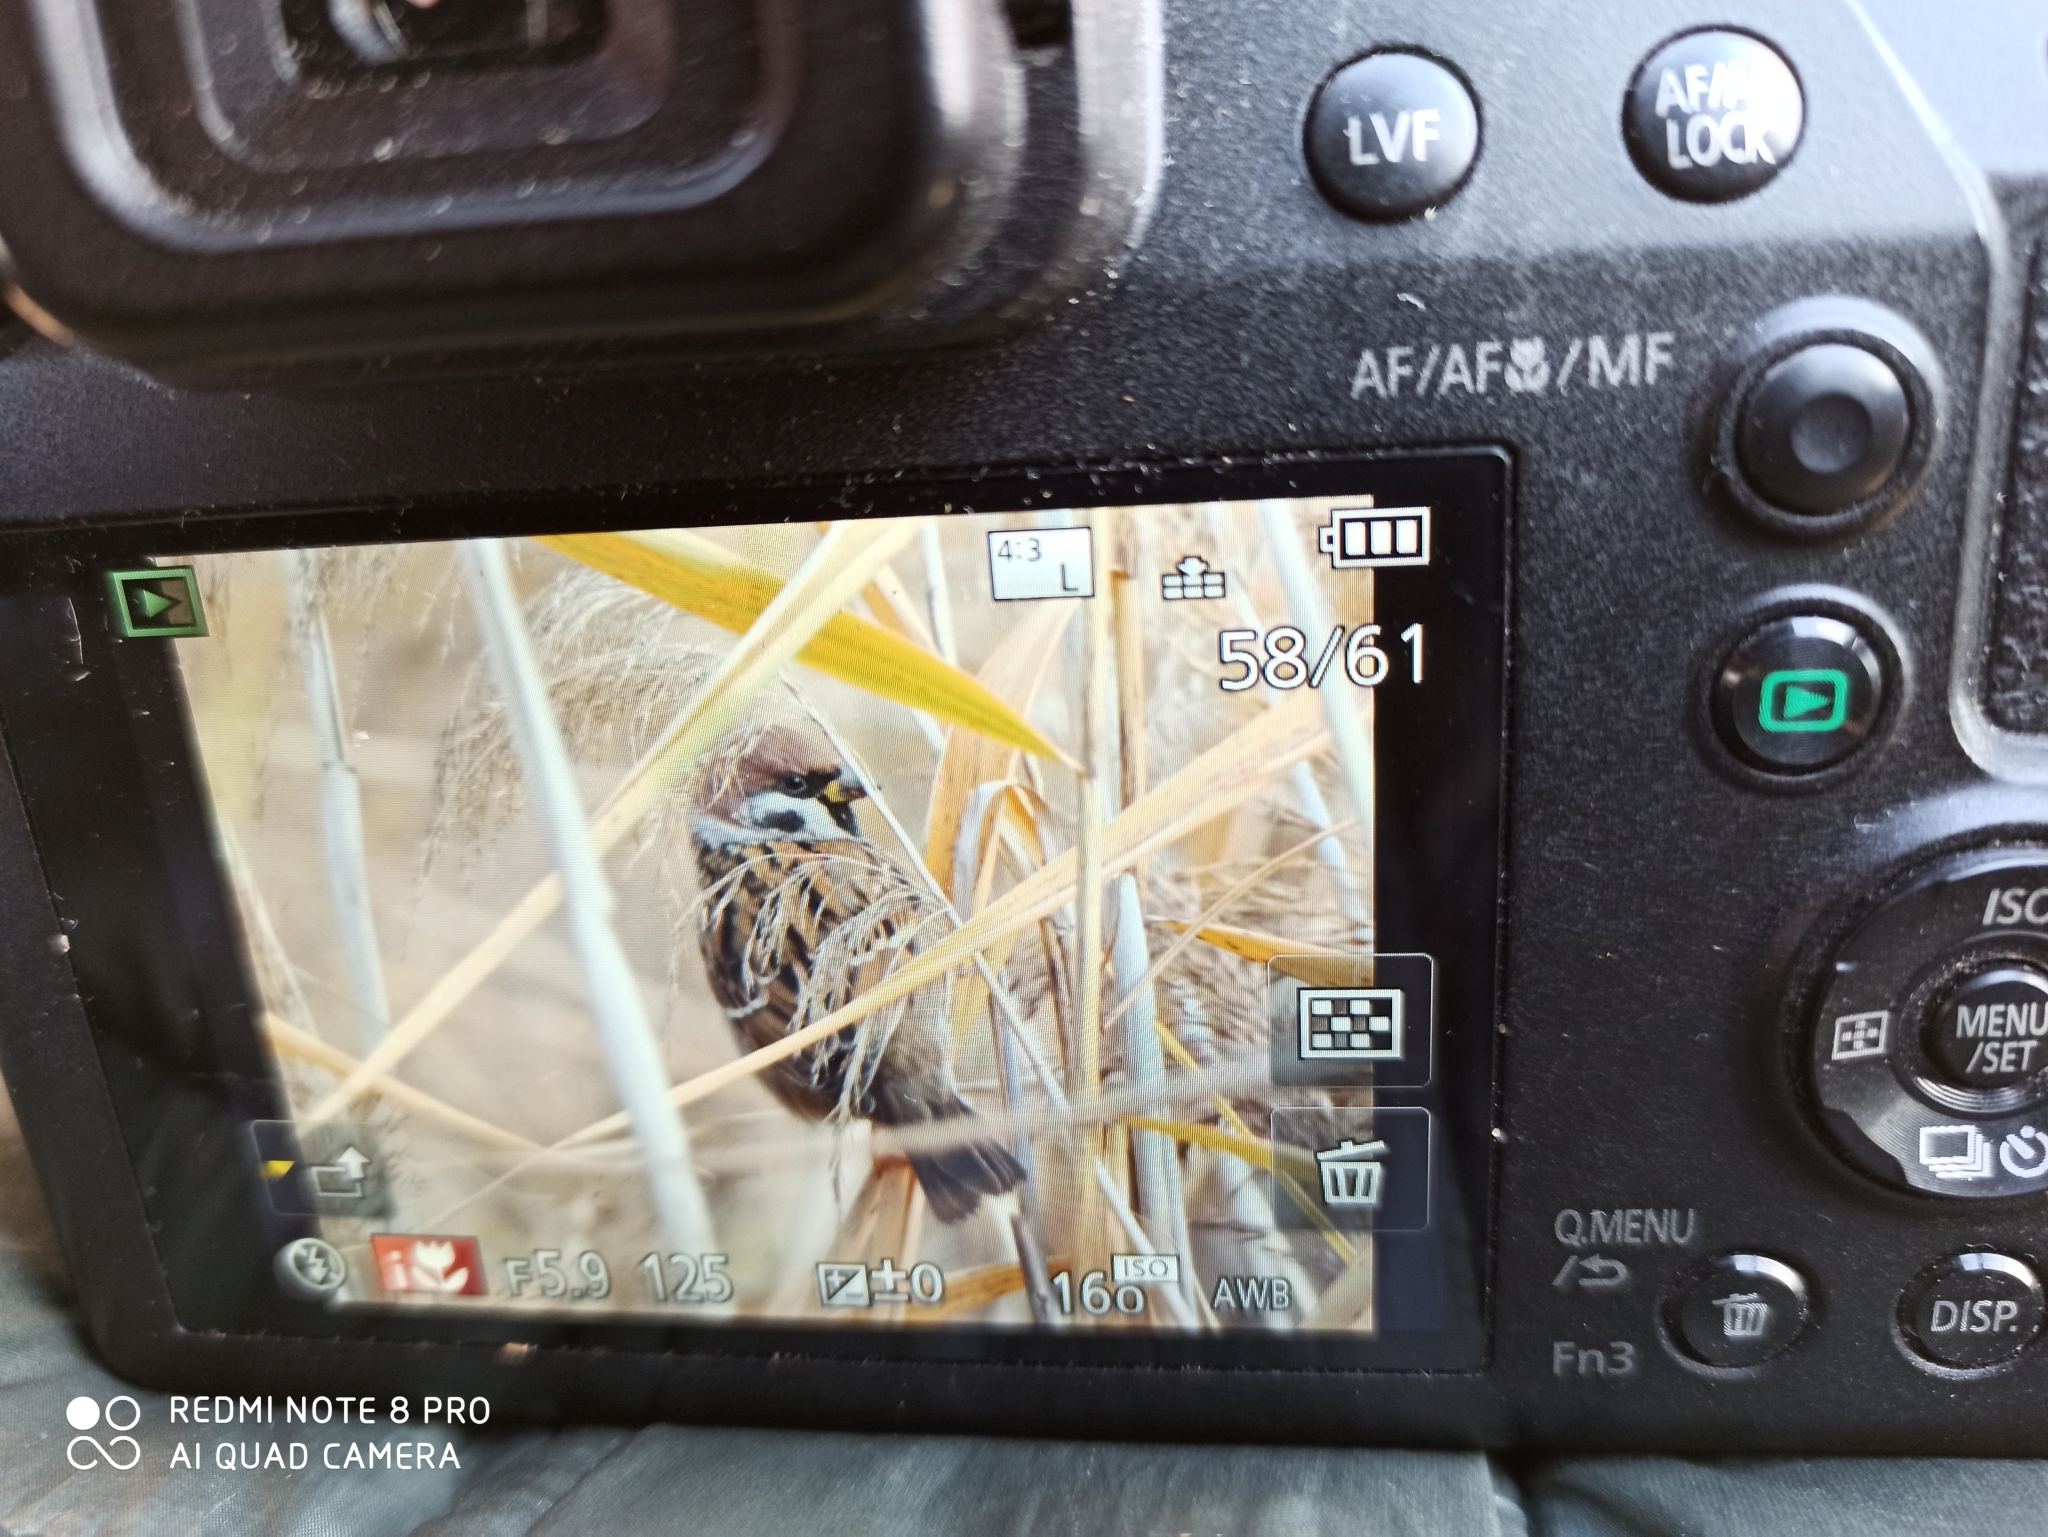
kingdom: Animalia
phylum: Chordata
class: Aves
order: Passeriformes
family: Passeridae
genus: Passer
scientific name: Passer montanus
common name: Eurasian tree sparrow
